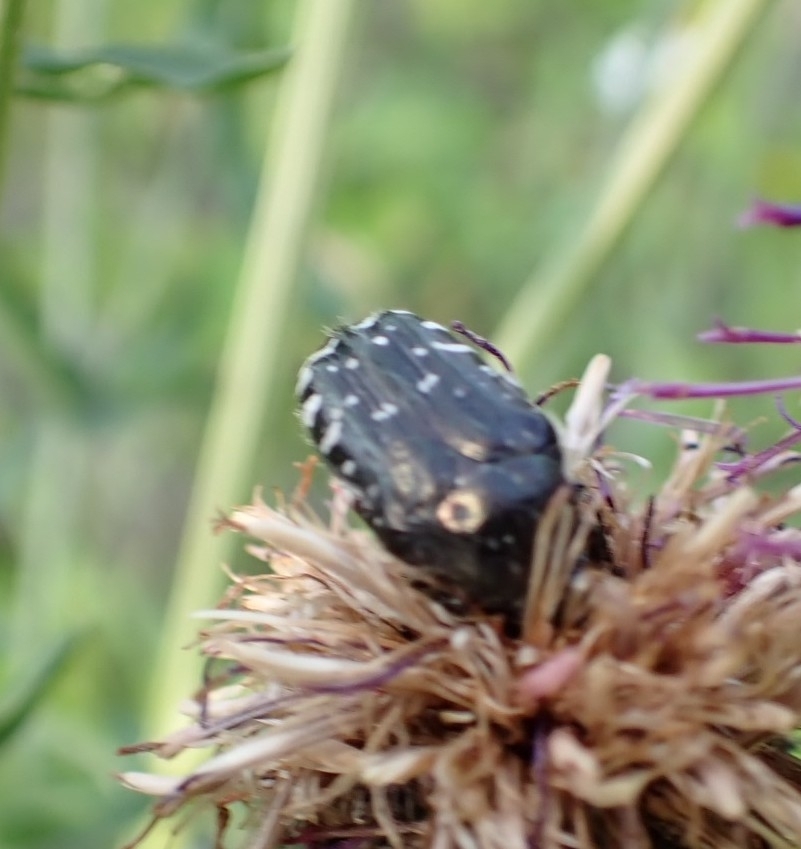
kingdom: Animalia
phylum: Arthropoda
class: Insecta
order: Coleoptera
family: Scarabaeidae
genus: Oxythyrea
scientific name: Oxythyrea funesta
